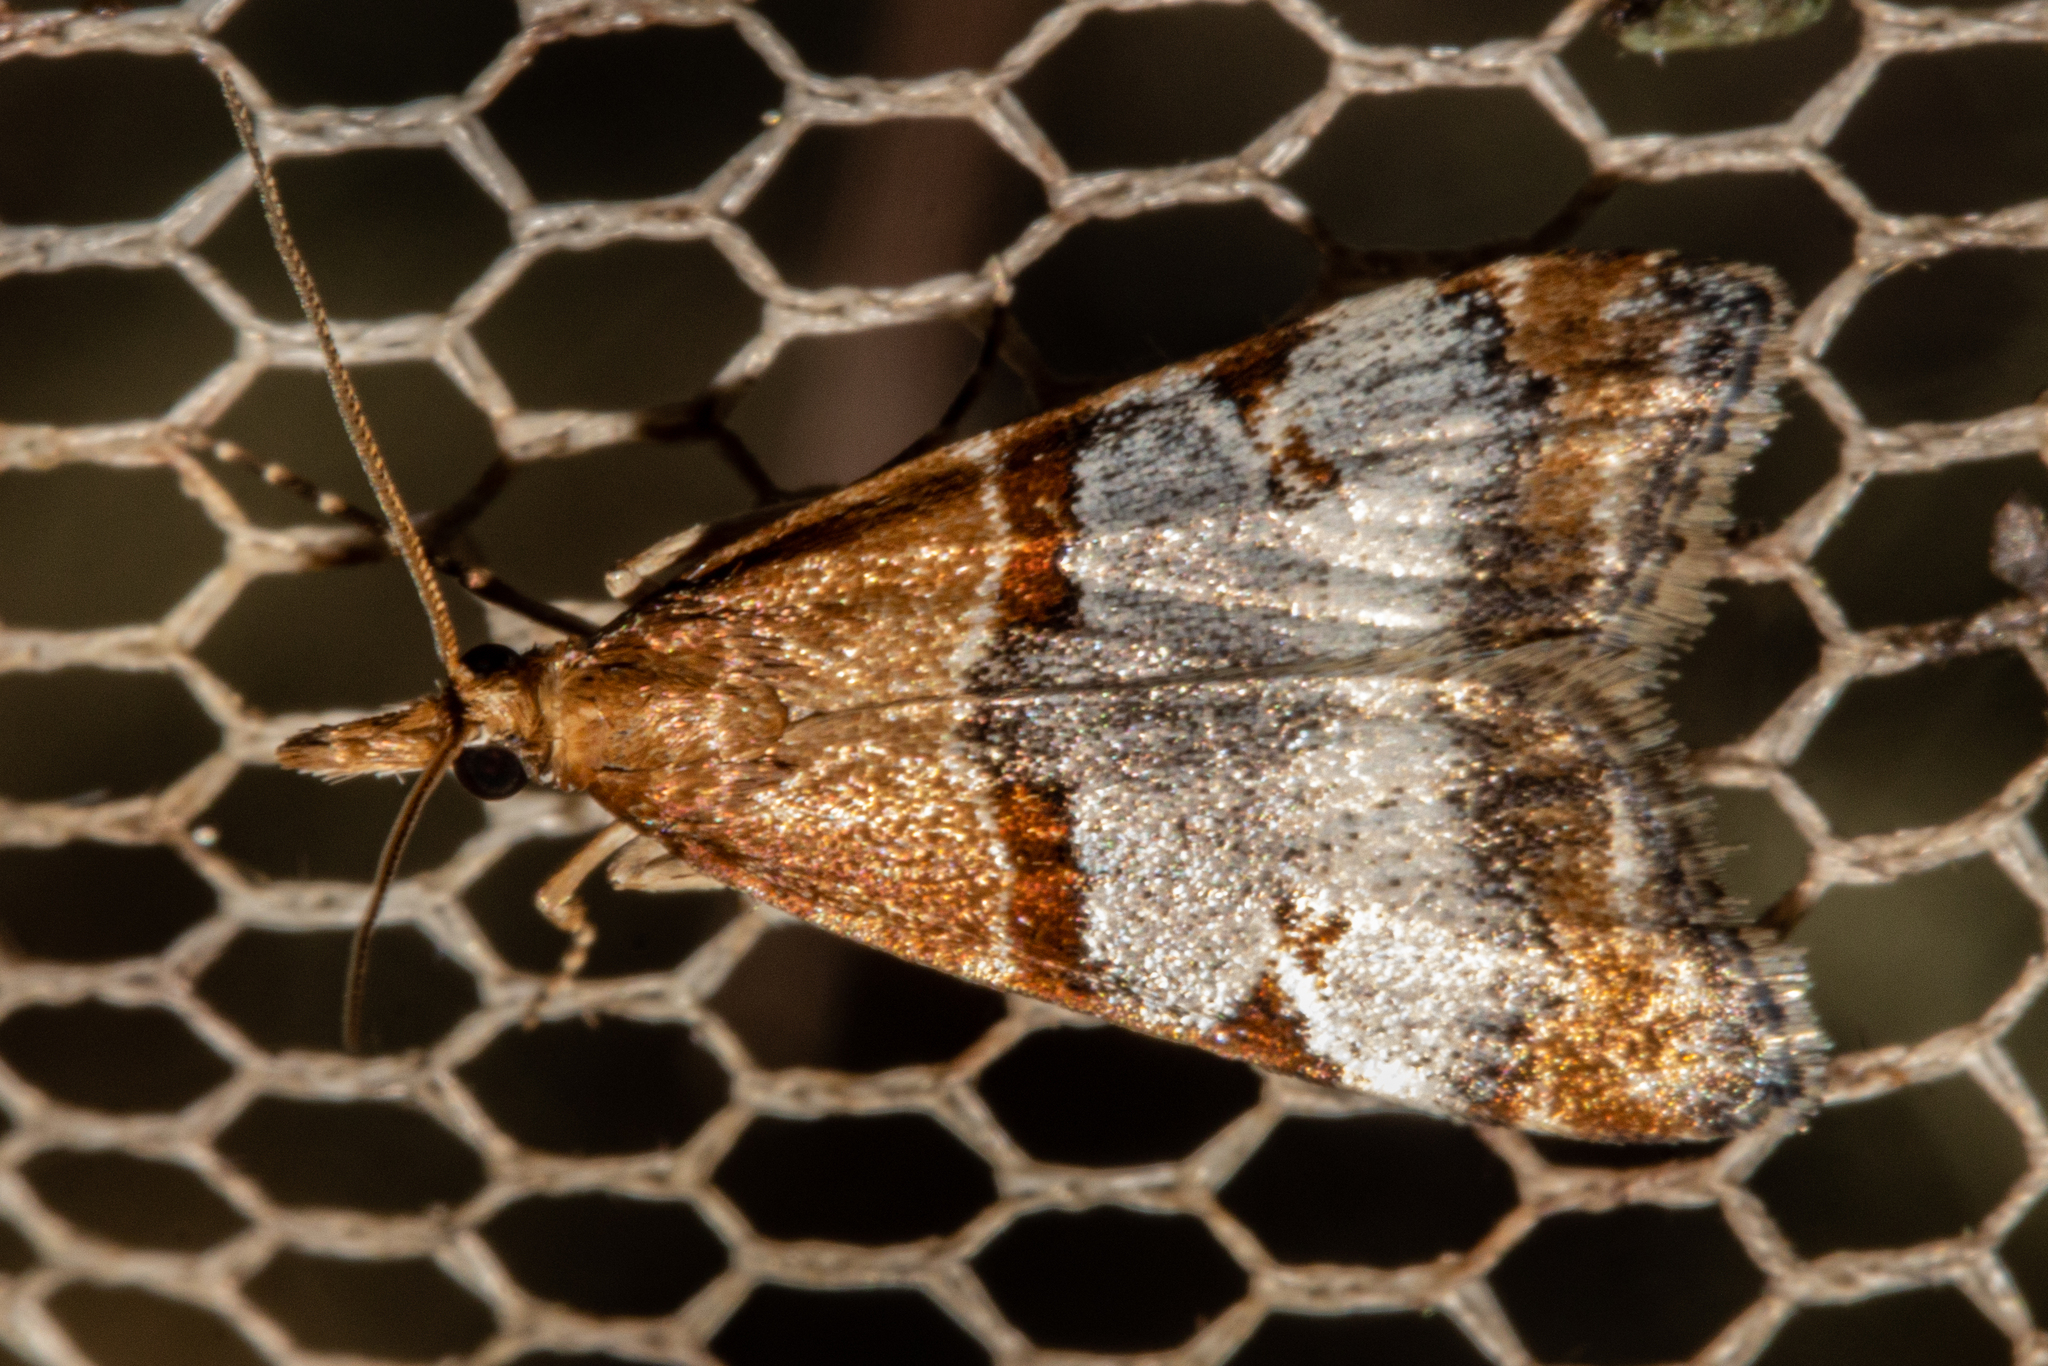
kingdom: Animalia
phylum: Arthropoda
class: Insecta
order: Lepidoptera
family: Crambidae
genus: Antiscopa
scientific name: Antiscopa epicomia
